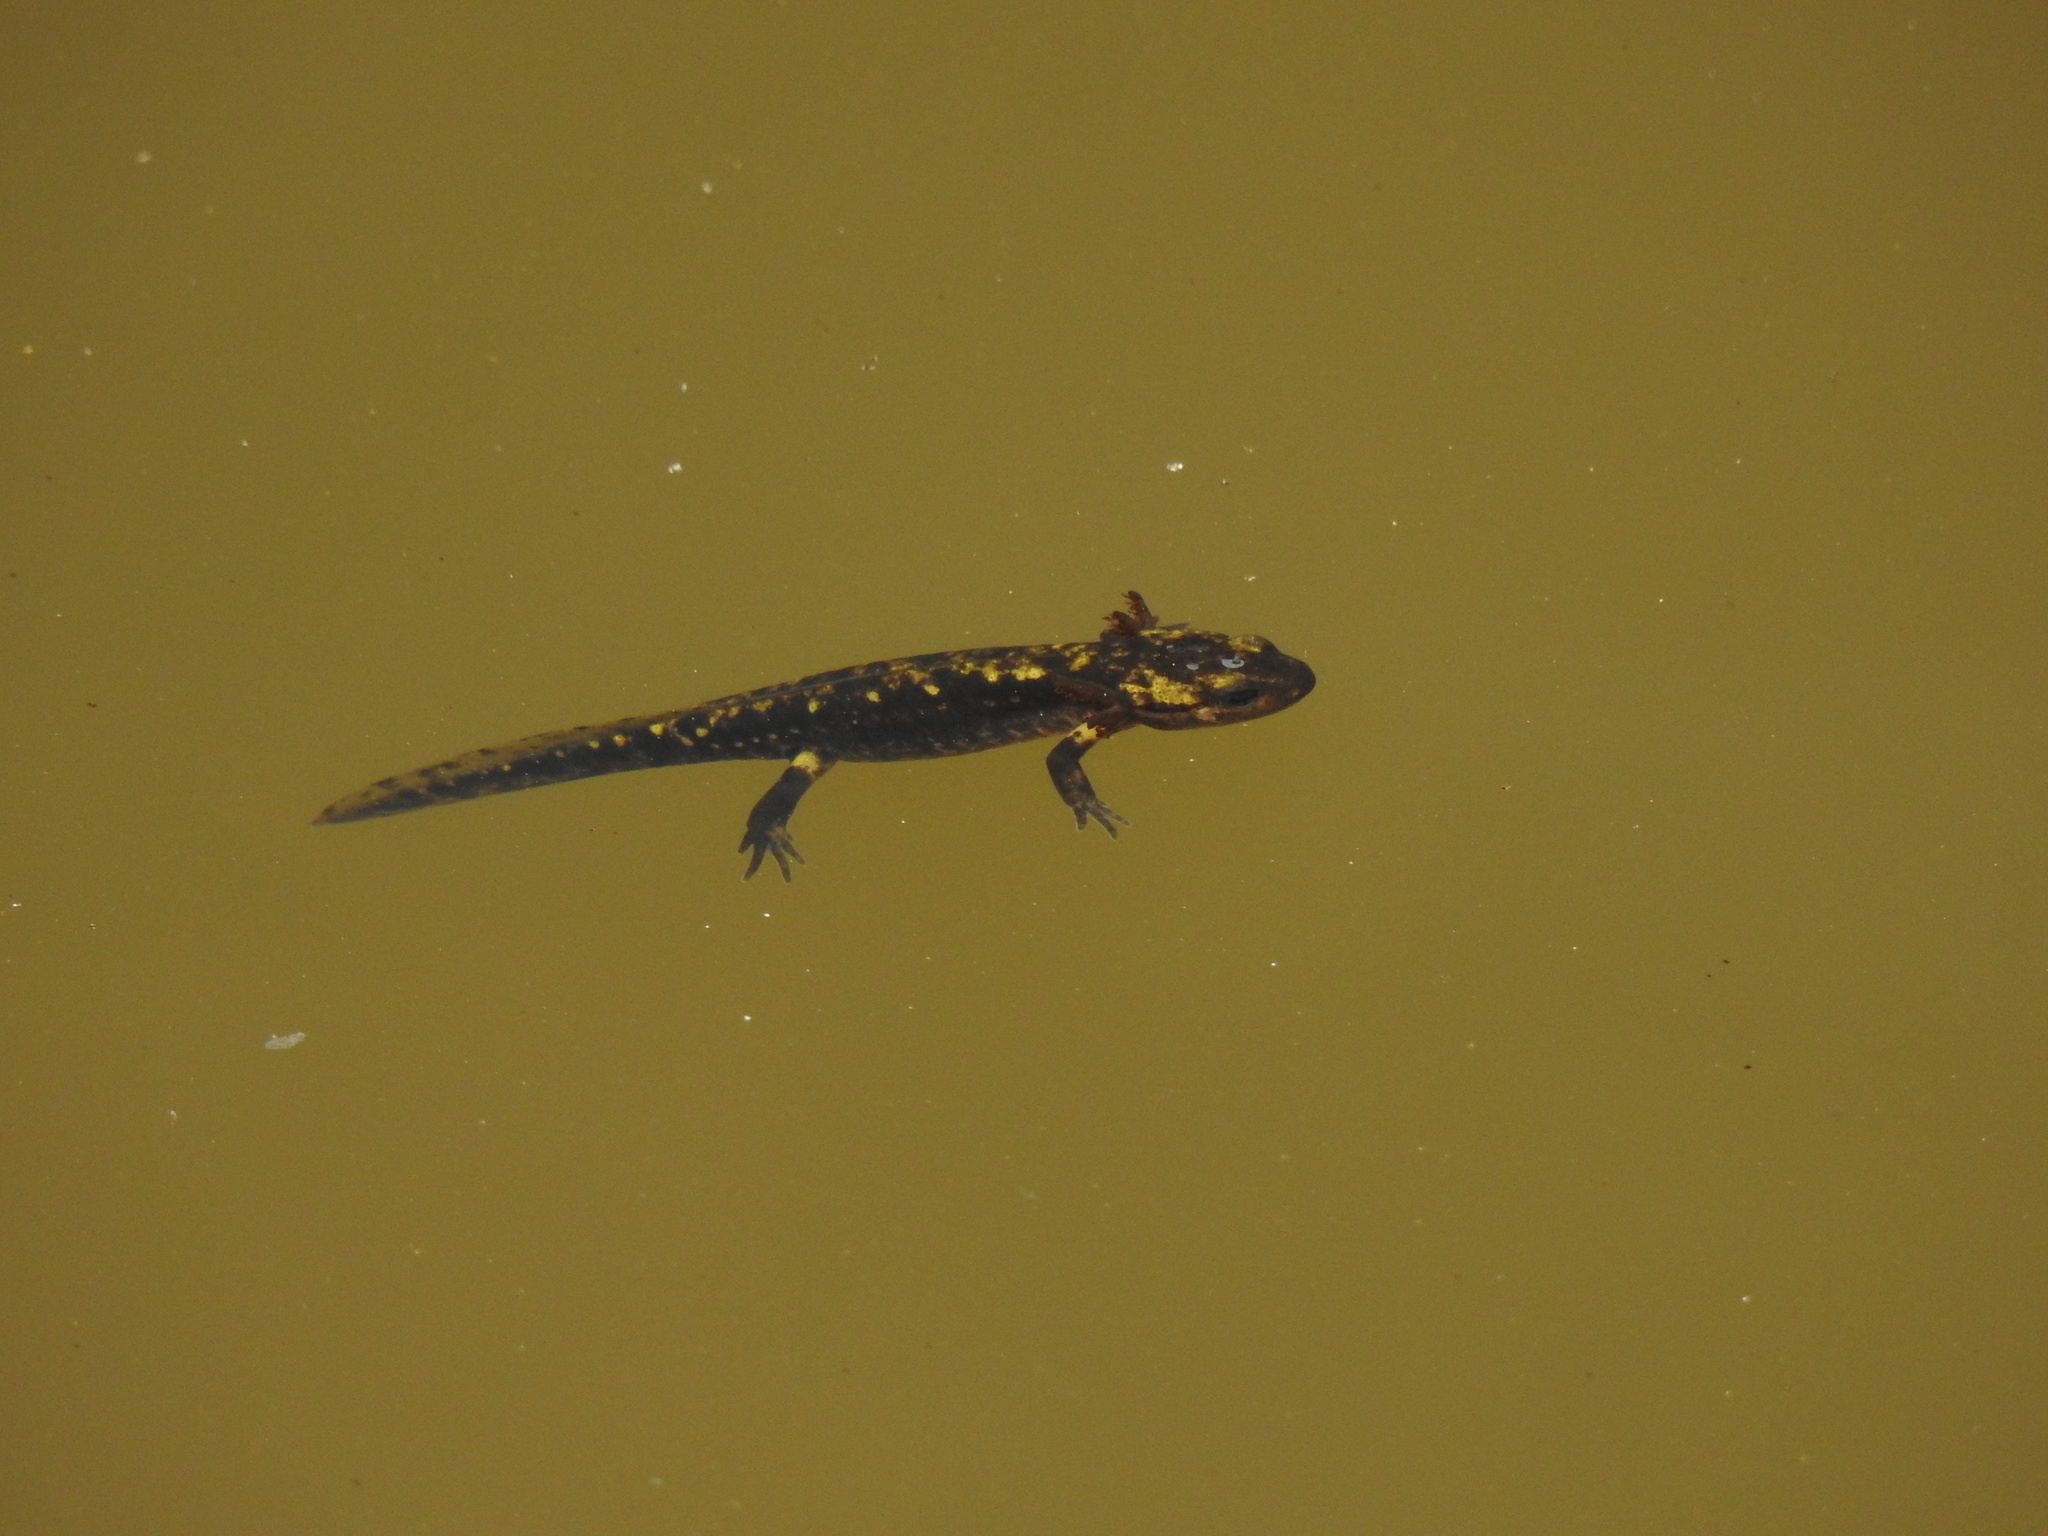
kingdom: Animalia
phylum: Chordata
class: Amphibia
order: Caudata
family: Salamandridae
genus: Salamandra
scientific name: Salamandra salamandra
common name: Fire salamander
